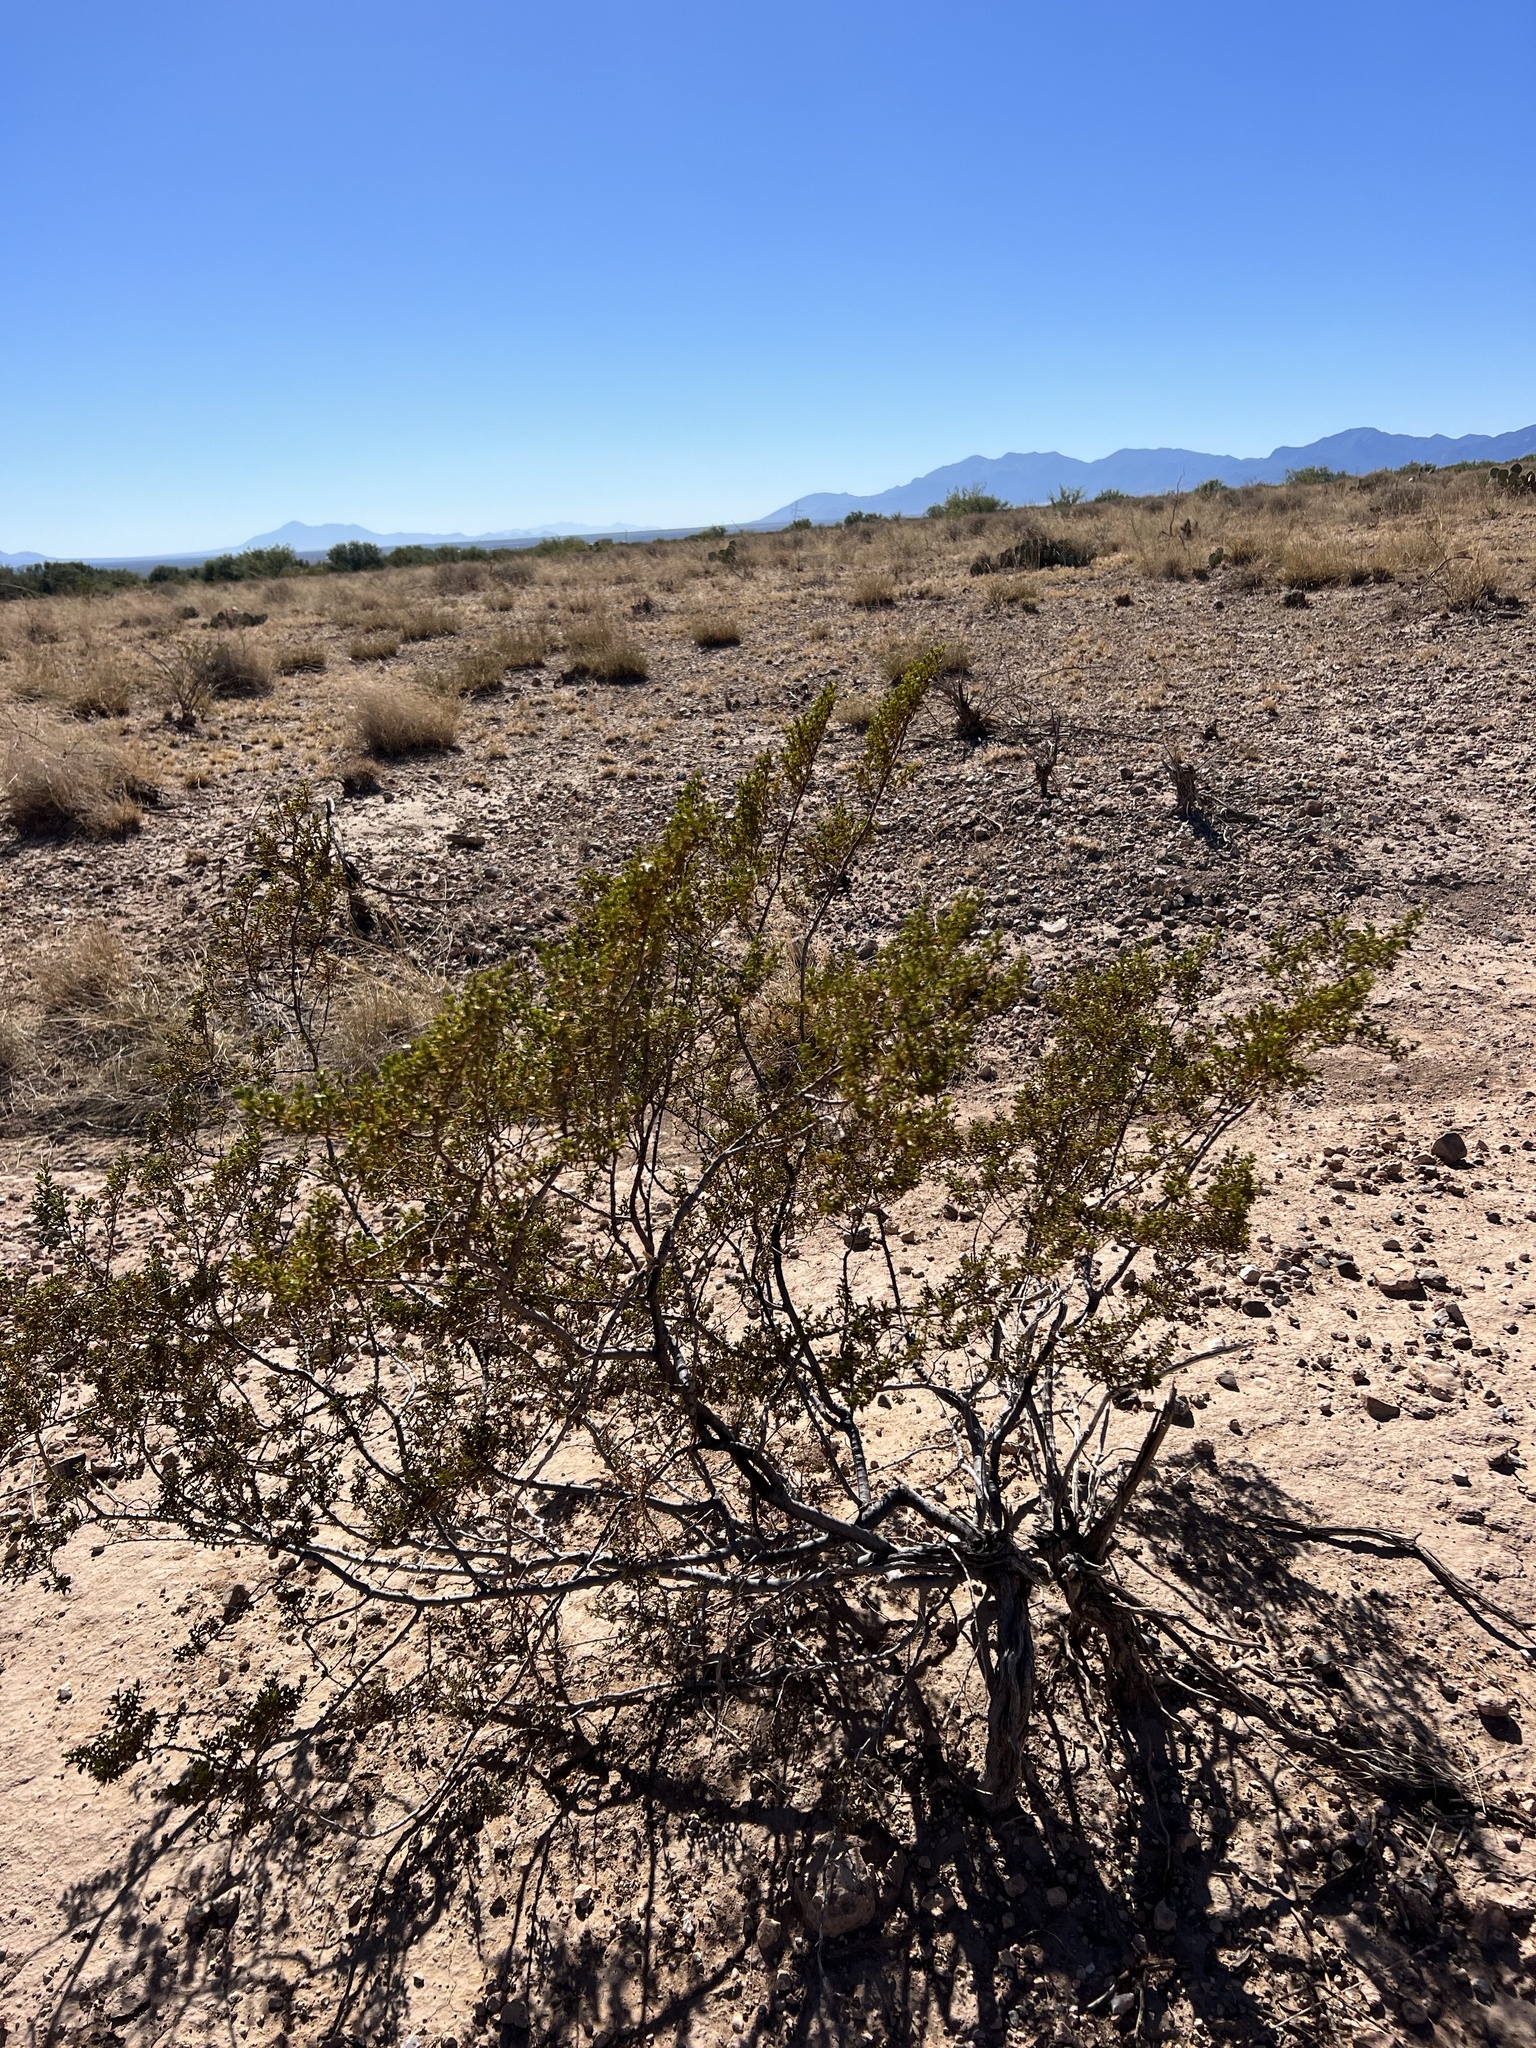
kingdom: Plantae
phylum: Tracheophyta
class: Magnoliopsida
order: Zygophyllales
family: Zygophyllaceae
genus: Larrea
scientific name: Larrea tridentata
